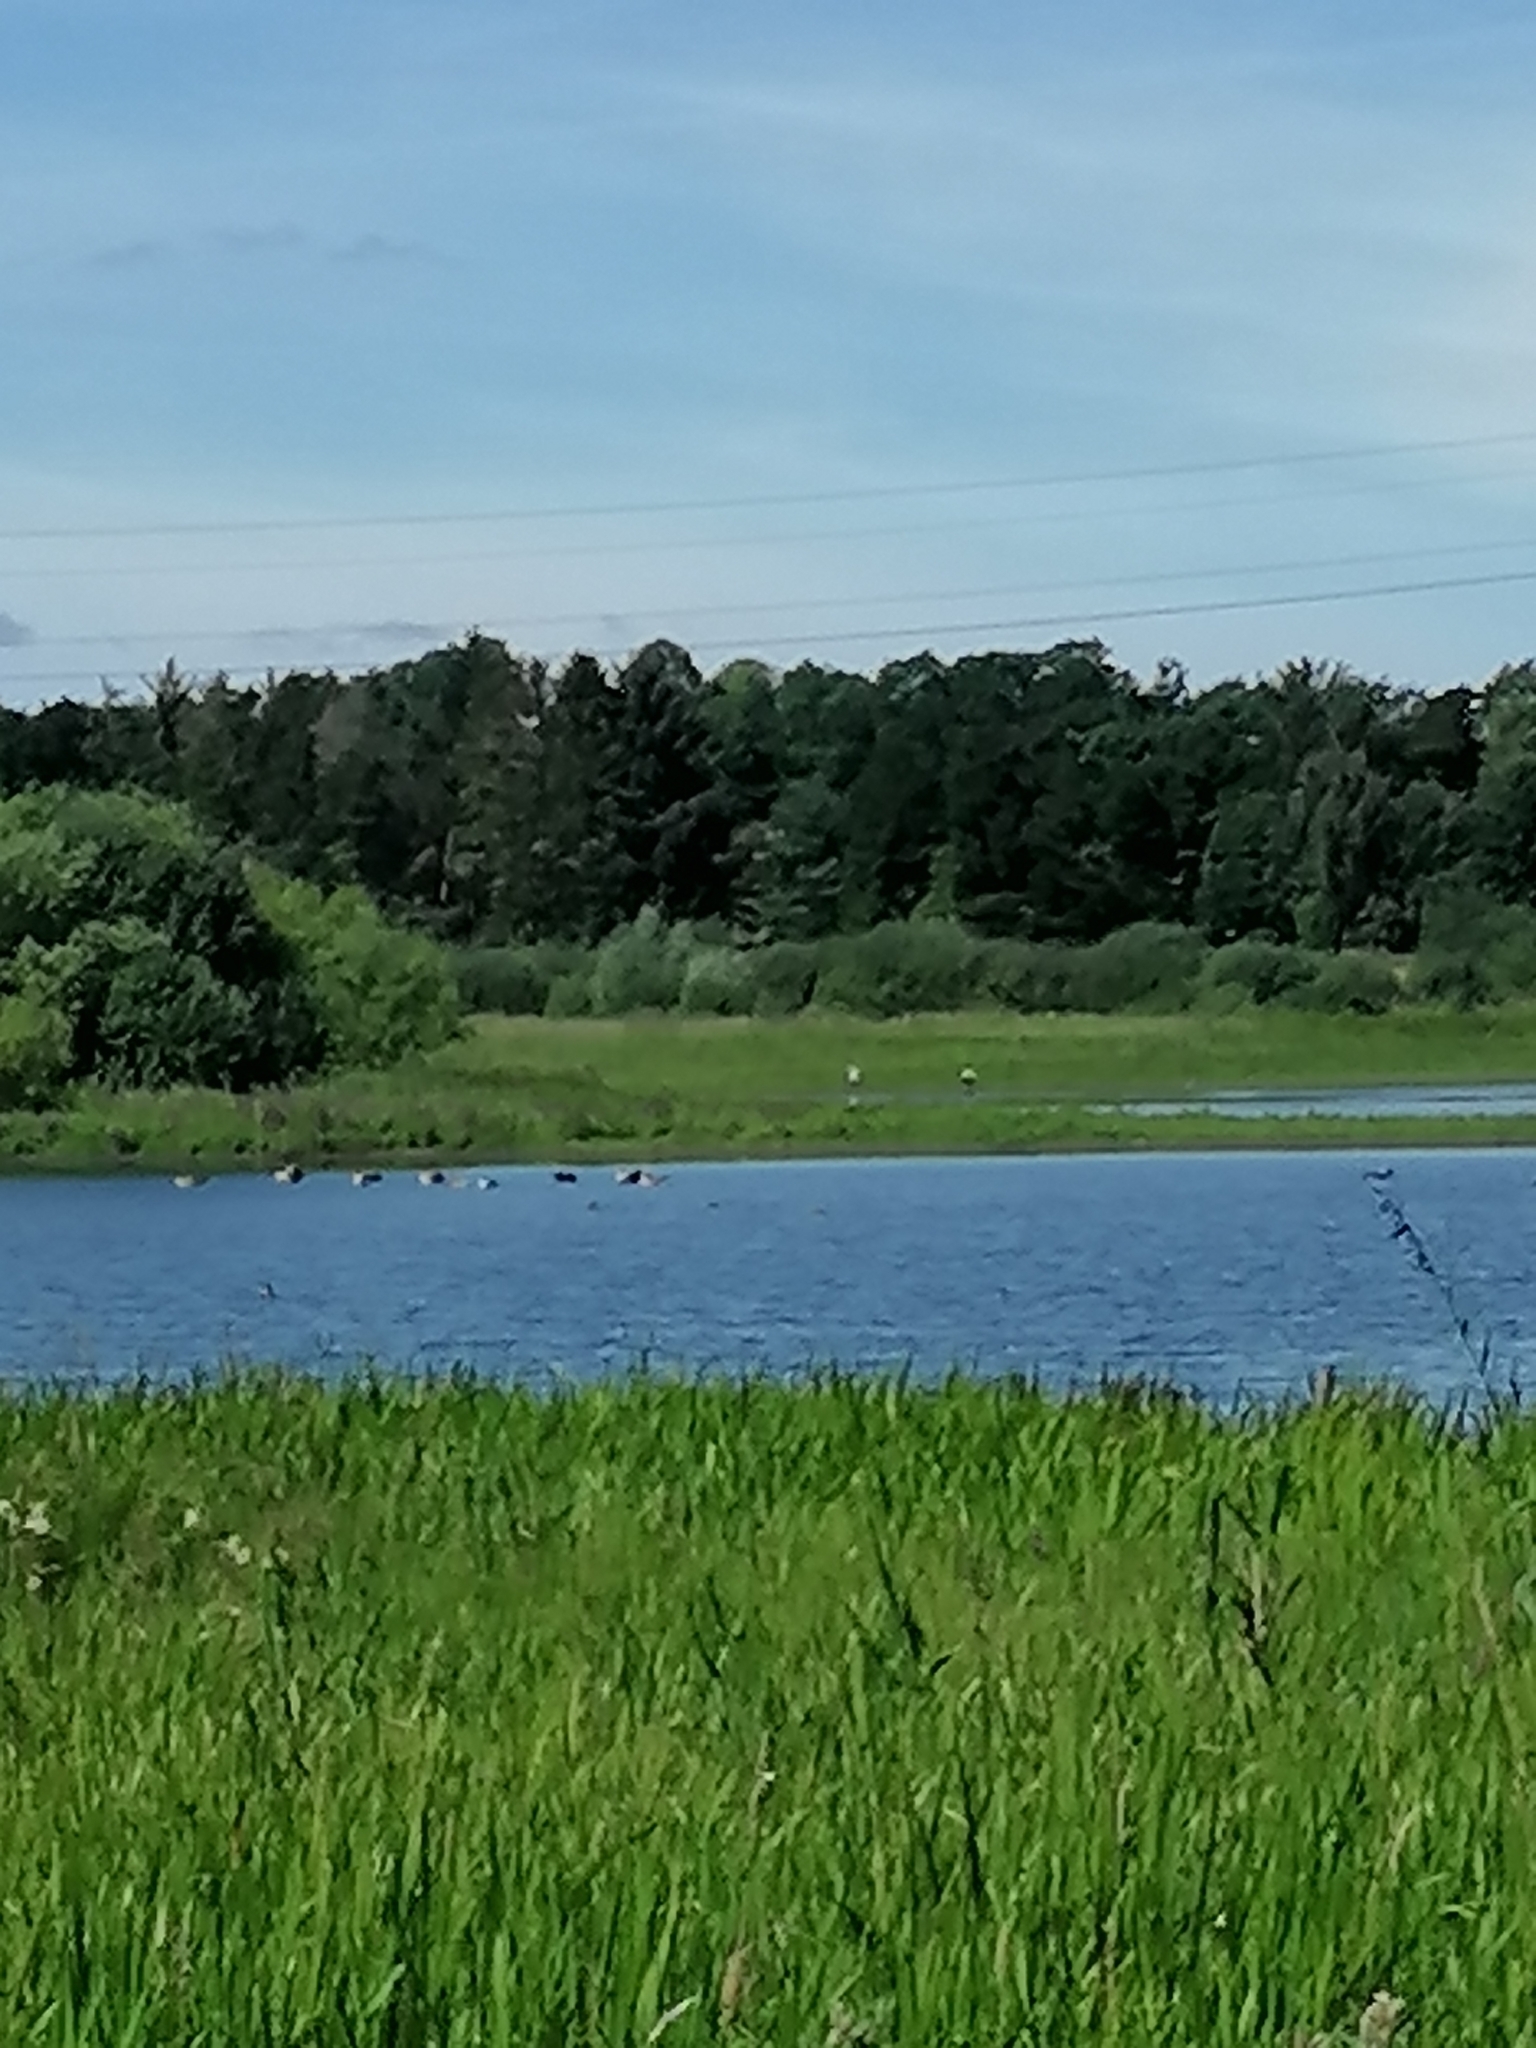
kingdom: Animalia
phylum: Chordata
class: Aves
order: Ciconiiformes
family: Ciconiidae
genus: Ciconia
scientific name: Ciconia ciconia
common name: White stork
